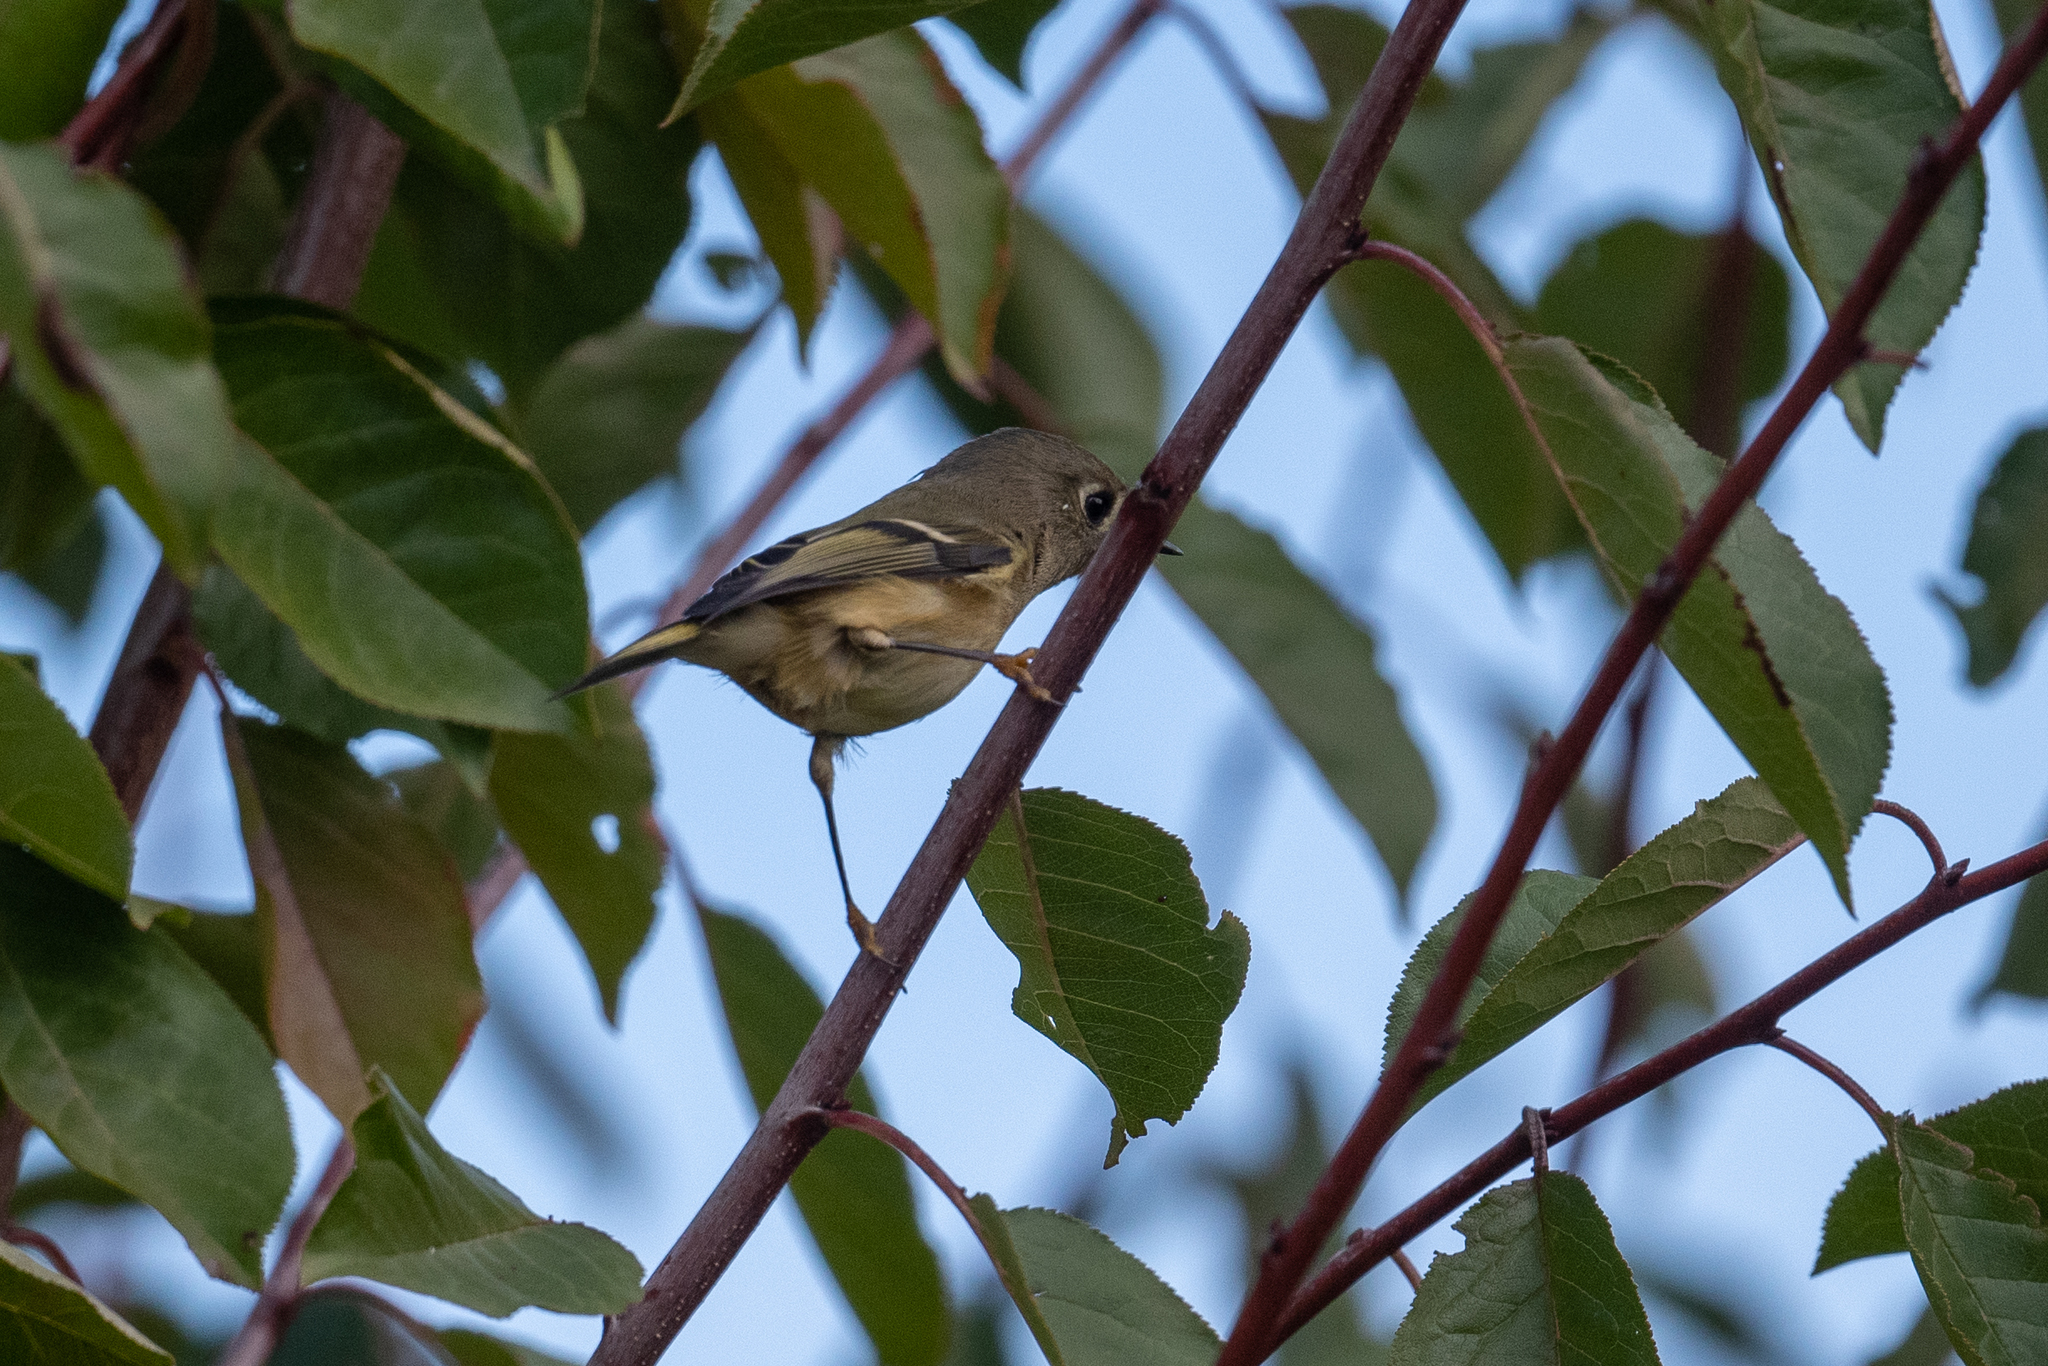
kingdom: Animalia
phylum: Chordata
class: Aves
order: Passeriformes
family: Regulidae
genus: Regulus
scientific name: Regulus calendula
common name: Ruby-crowned kinglet
